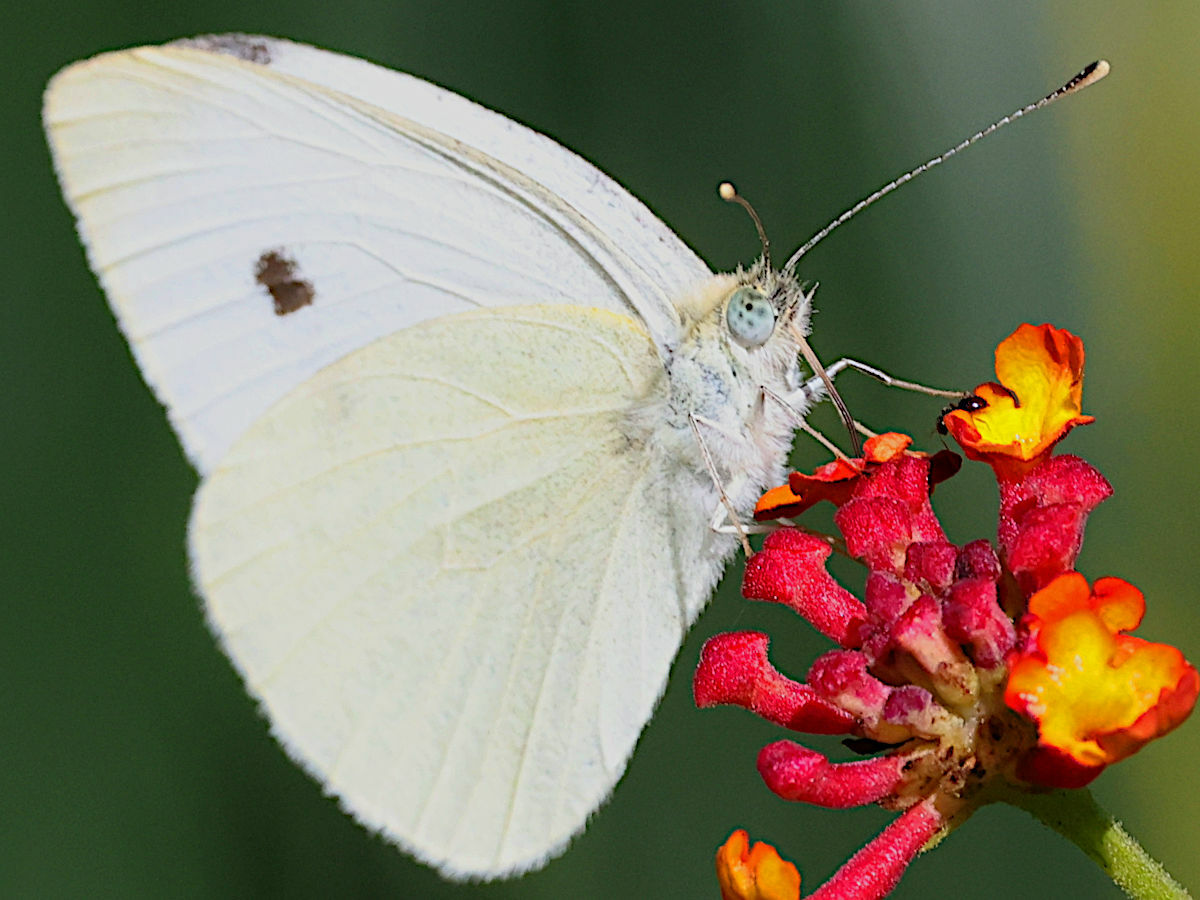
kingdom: Animalia
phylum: Arthropoda
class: Insecta
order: Lepidoptera
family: Pieridae
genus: Pieris
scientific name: Pieris rapae
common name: Small white
